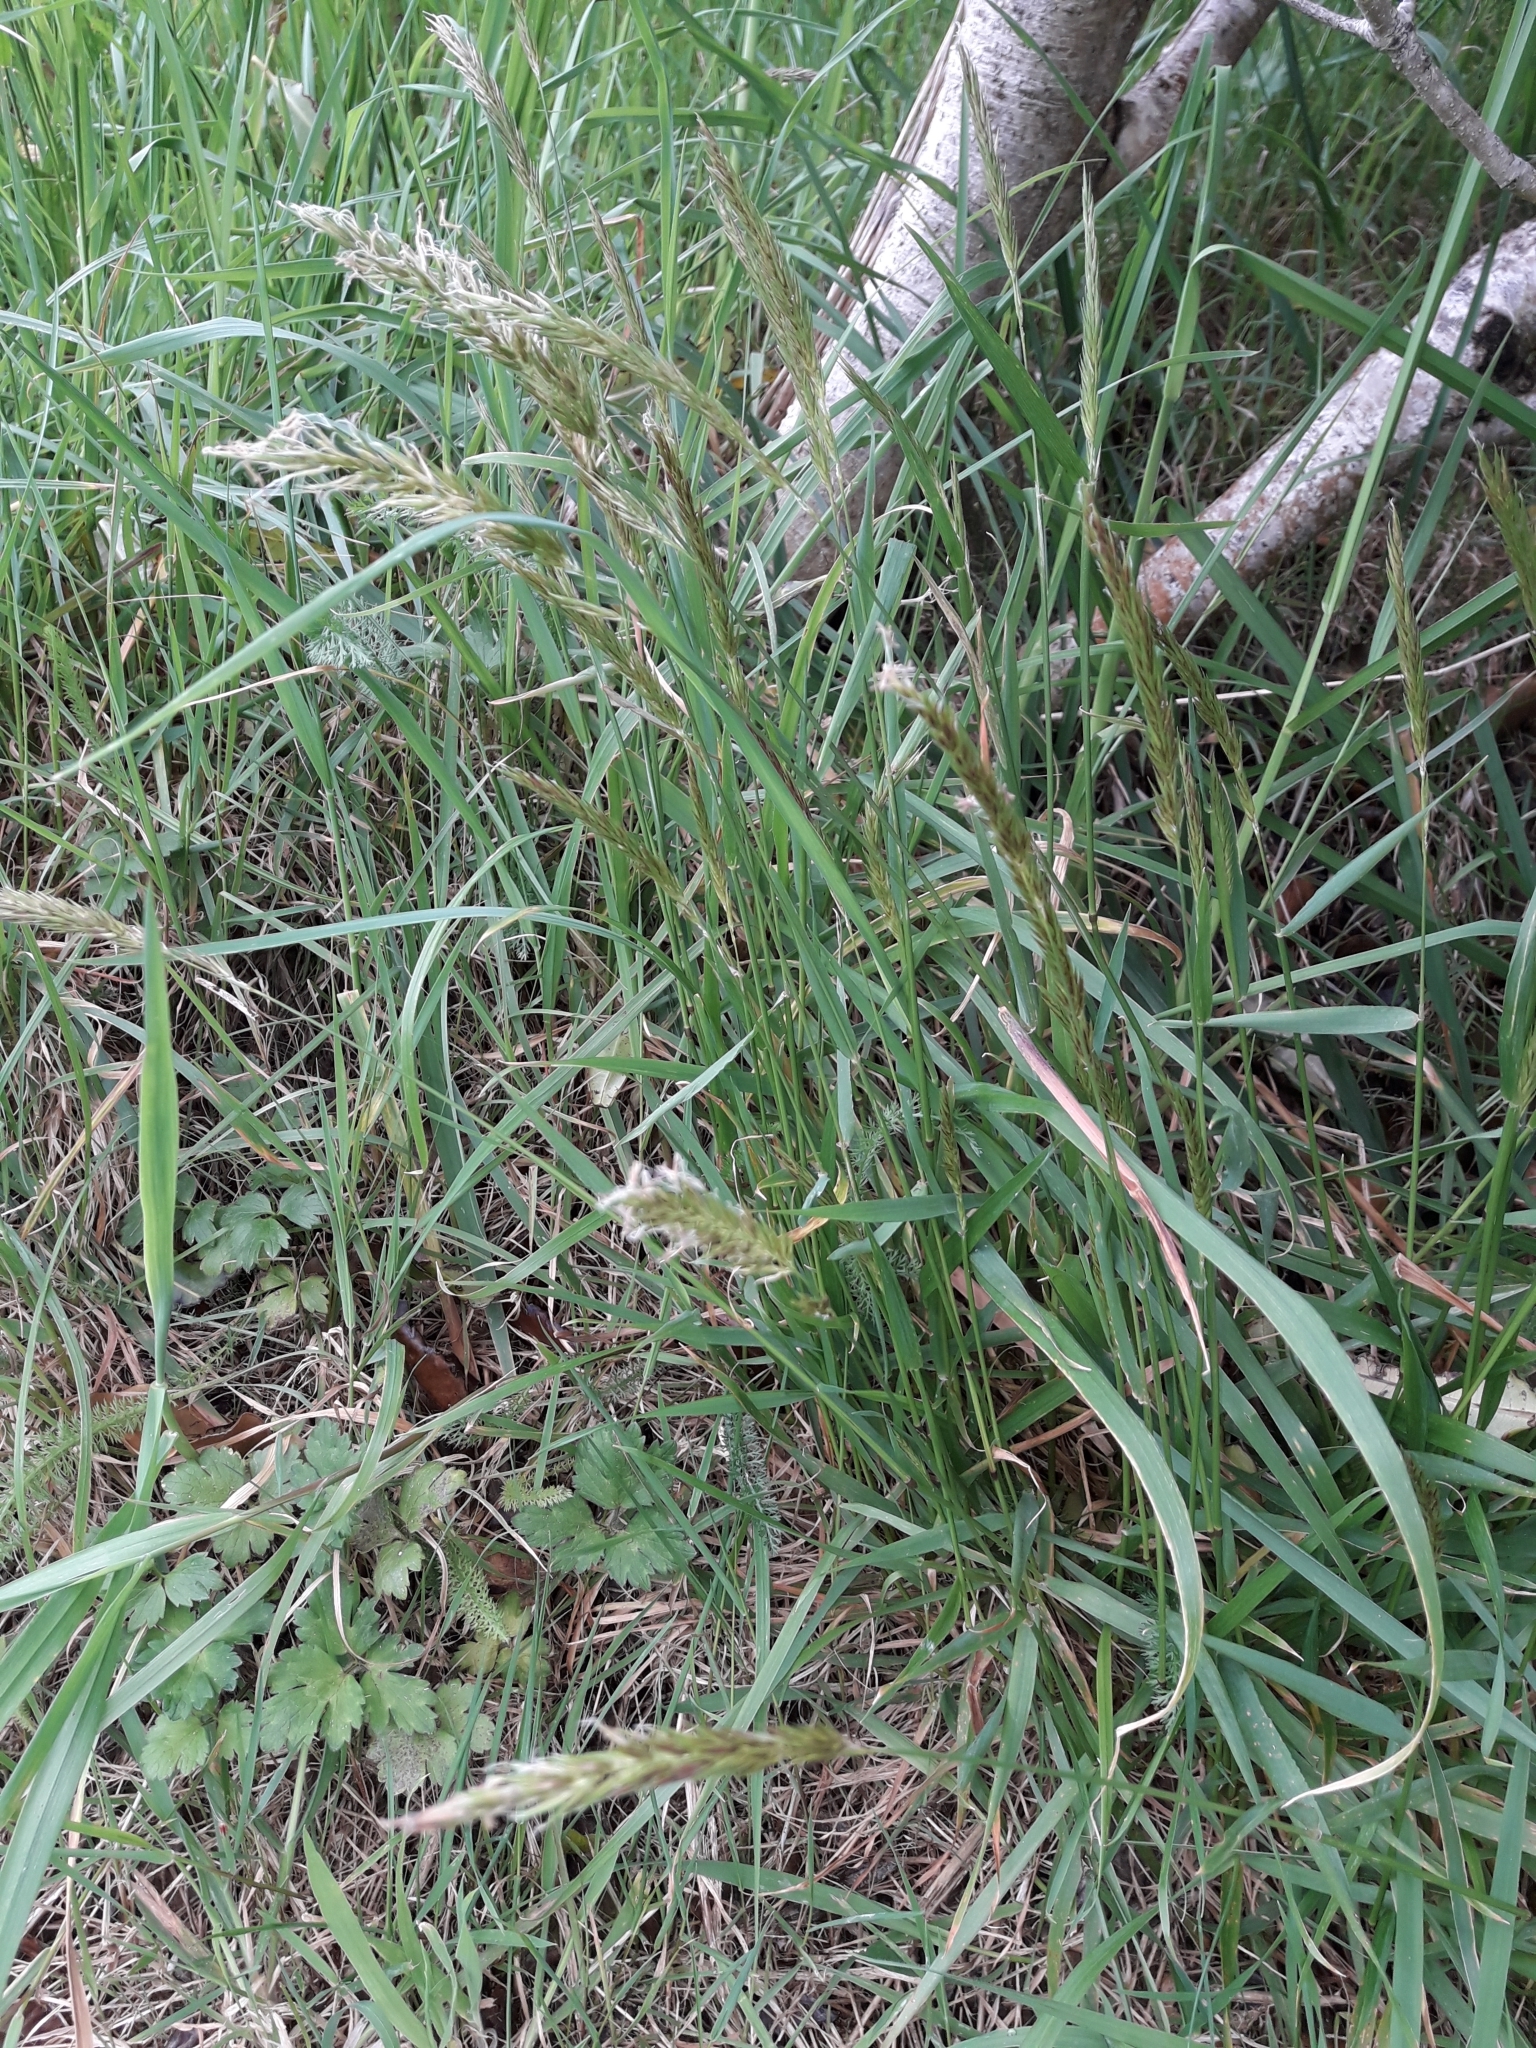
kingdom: Plantae
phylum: Tracheophyta
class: Liliopsida
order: Poales
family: Poaceae
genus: Anthoxanthum
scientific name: Anthoxanthum odoratum
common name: Sweet vernalgrass
